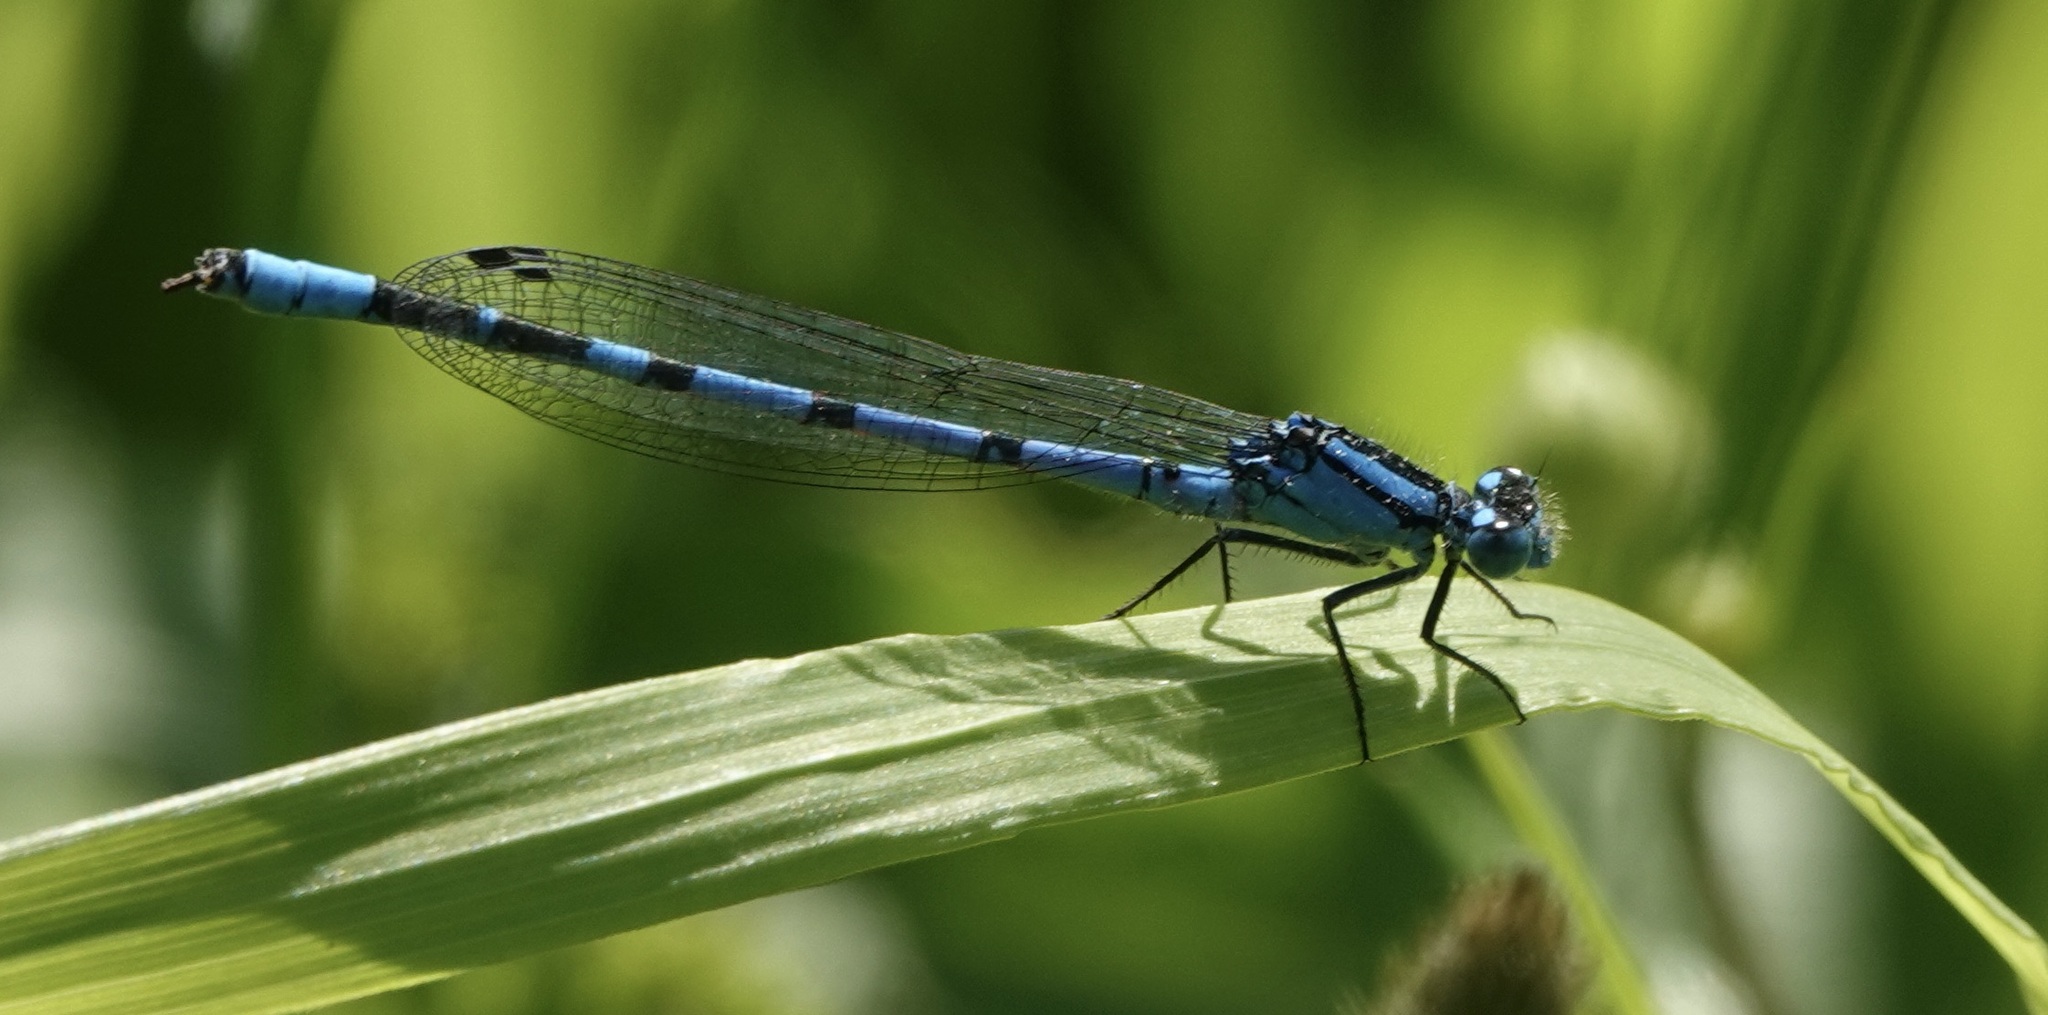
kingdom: Animalia
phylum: Arthropoda
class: Insecta
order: Odonata
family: Coenagrionidae
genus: Enallagma
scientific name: Enallagma cyathigerum
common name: Common blue damselfly
